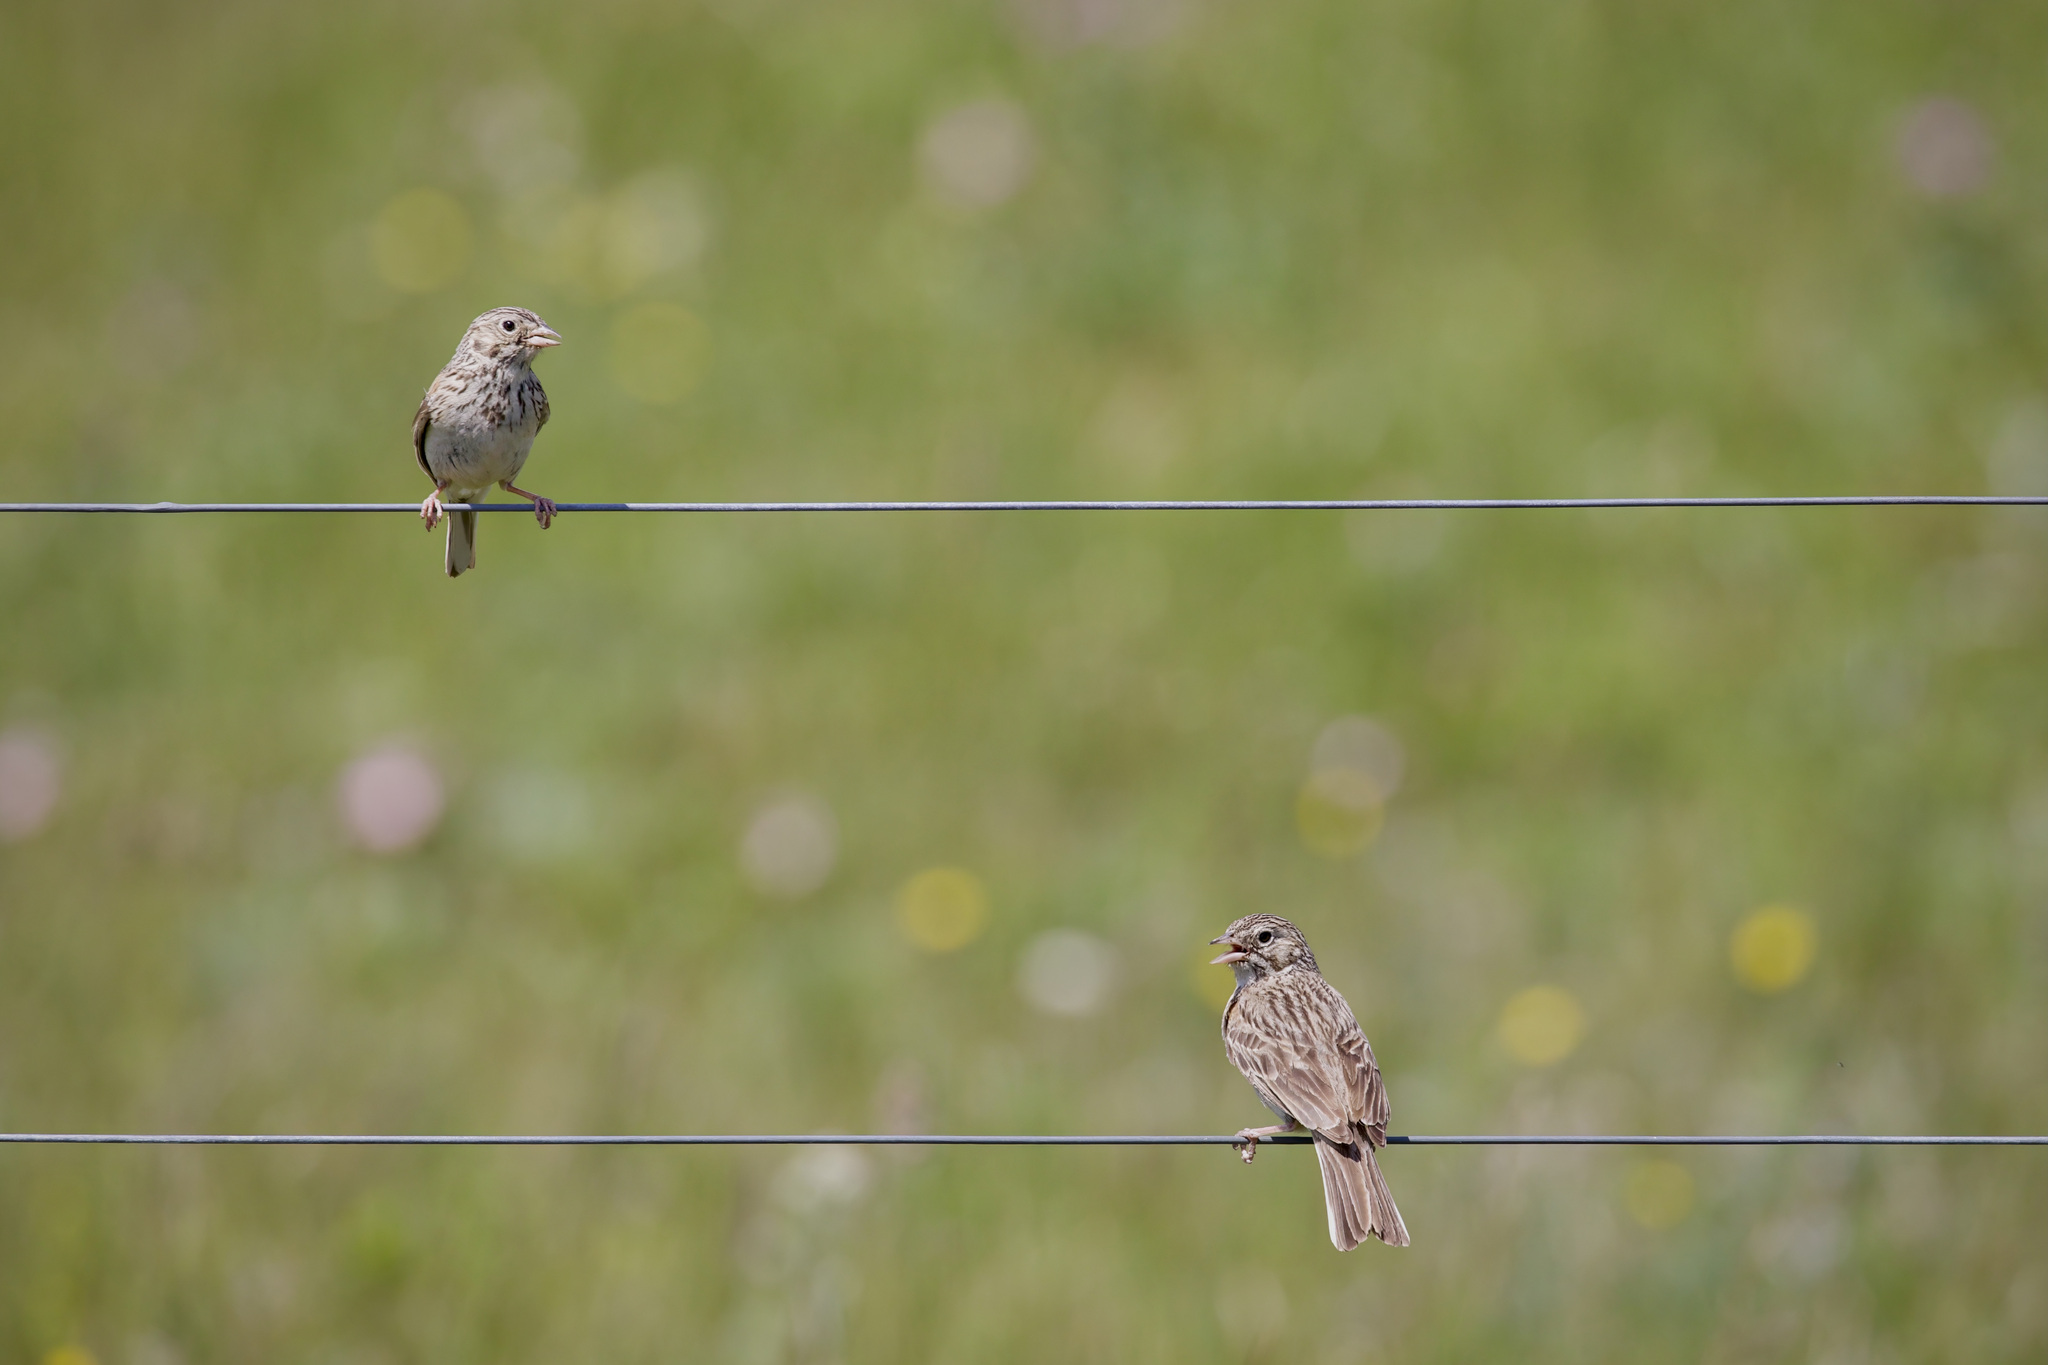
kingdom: Animalia
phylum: Chordata
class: Aves
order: Passeriformes
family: Passerellidae
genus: Pooecetes
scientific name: Pooecetes gramineus
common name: Vesper sparrow
